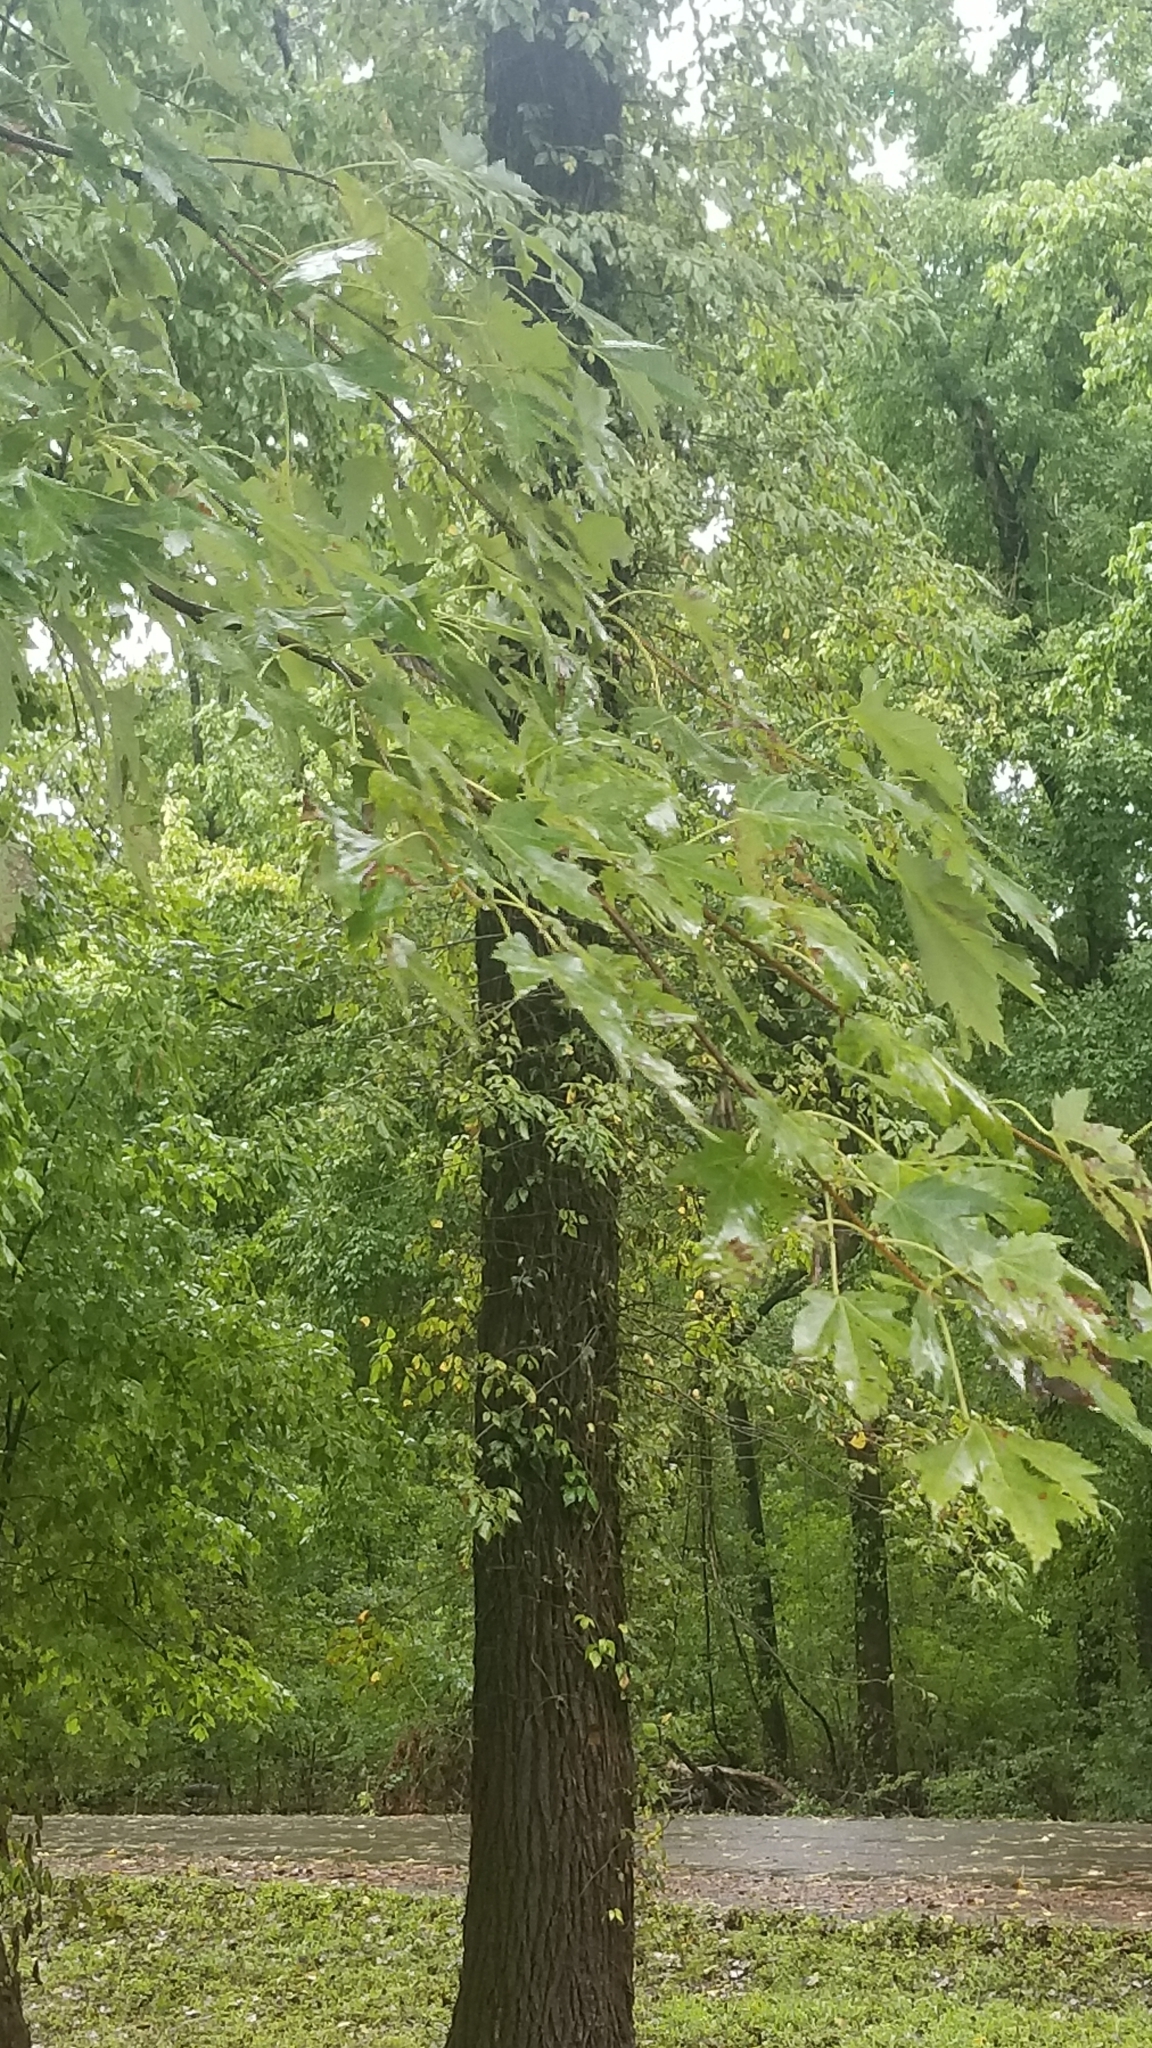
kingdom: Plantae
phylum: Tracheophyta
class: Magnoliopsida
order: Sapindales
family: Sapindaceae
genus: Acer
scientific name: Acer saccharinum
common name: Silver maple
